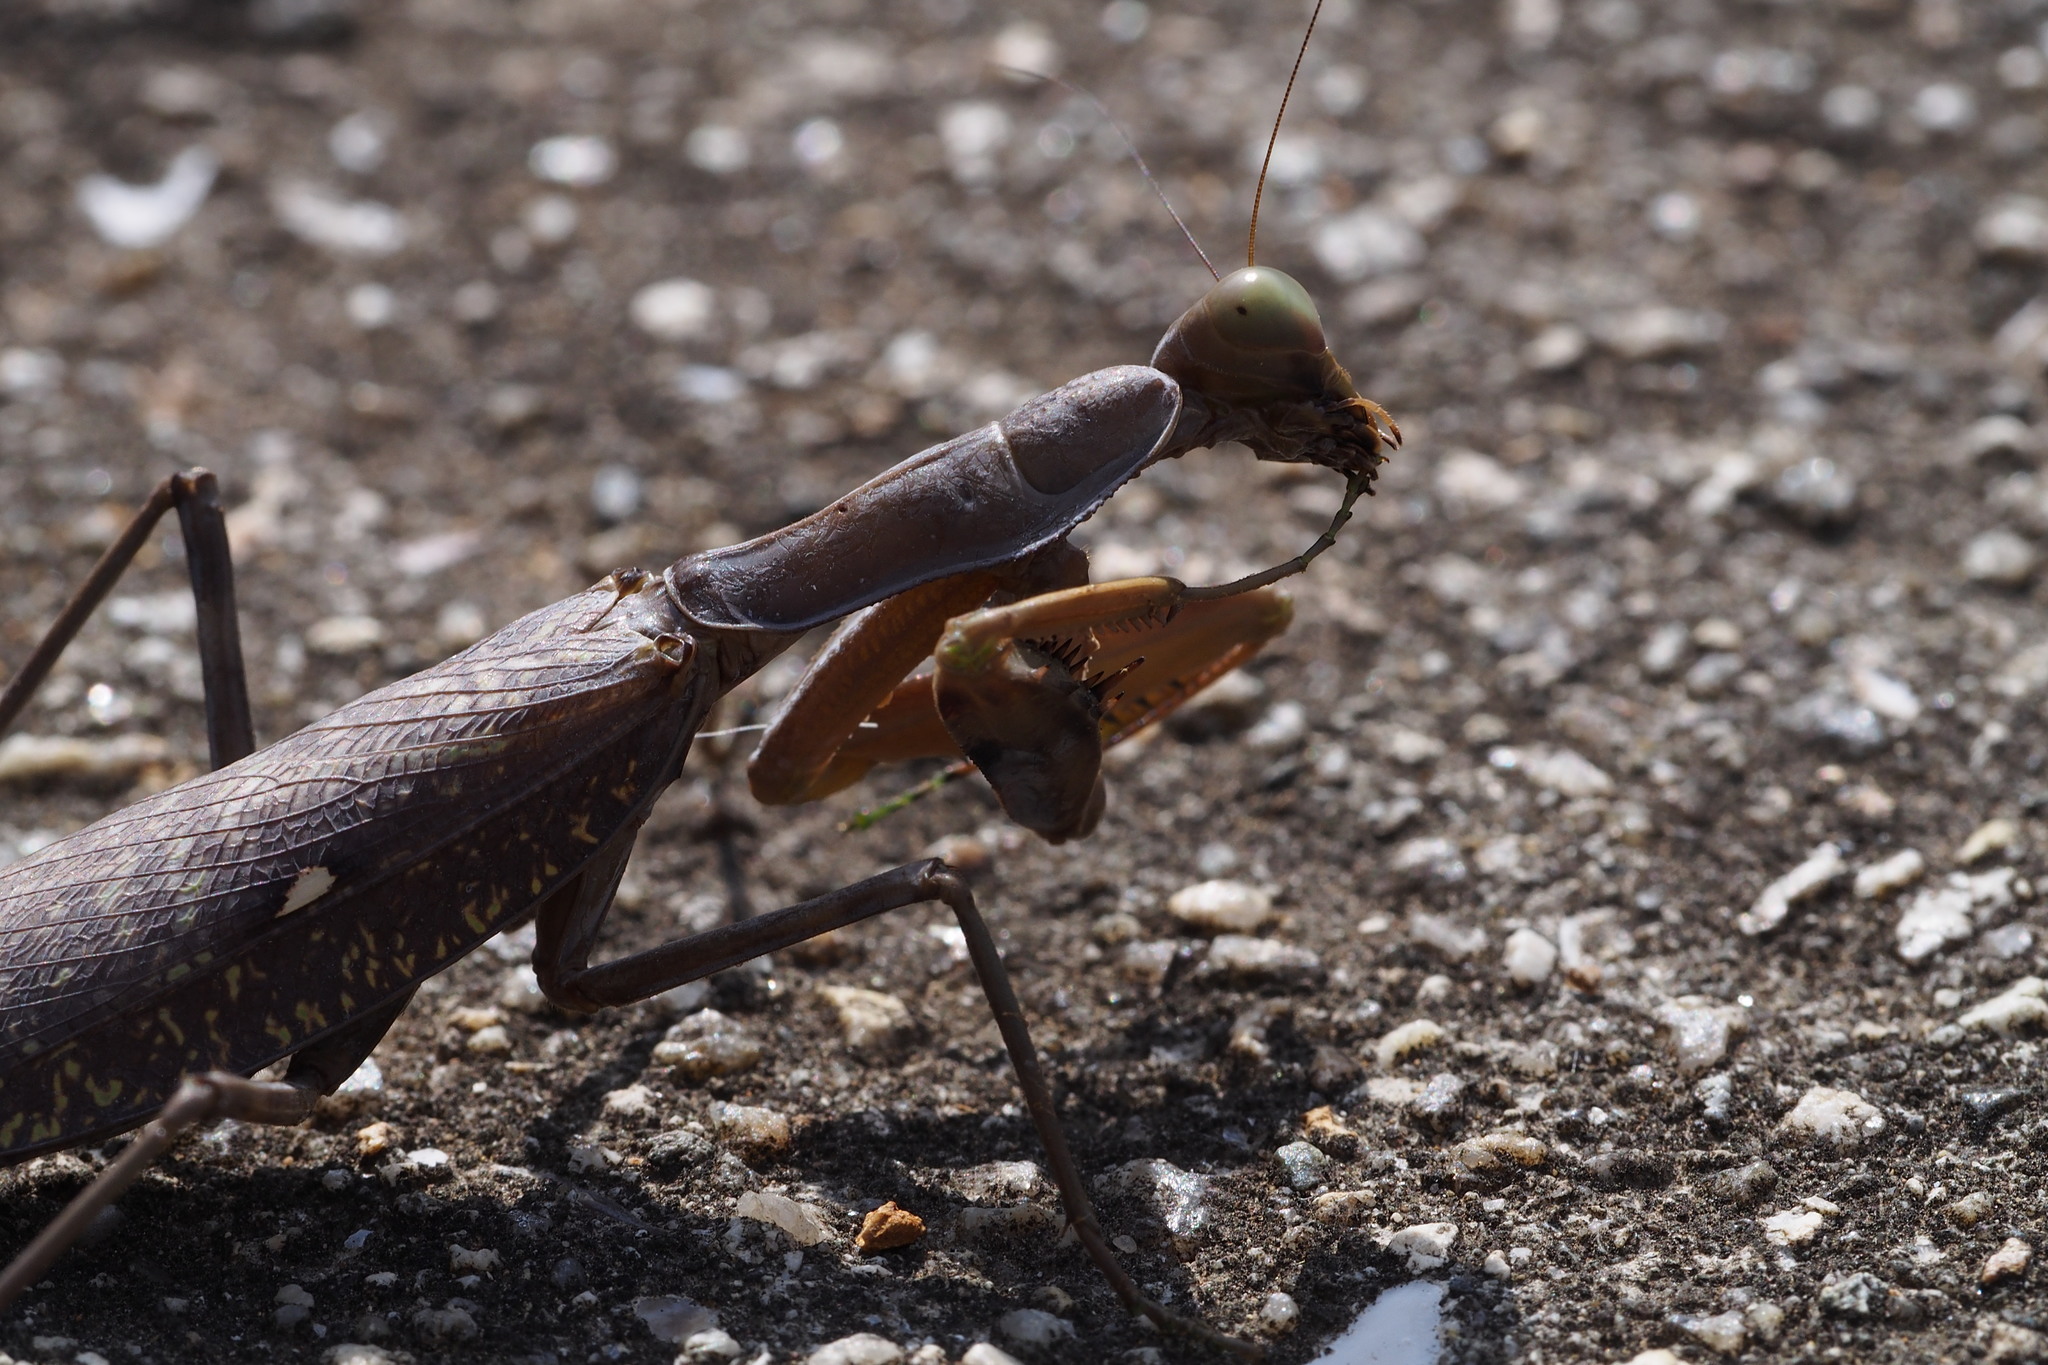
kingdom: Animalia
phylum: Arthropoda
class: Insecta
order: Mantodea
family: Mantidae
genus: Hierodula
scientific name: Hierodula patellifera
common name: Asian mantis
